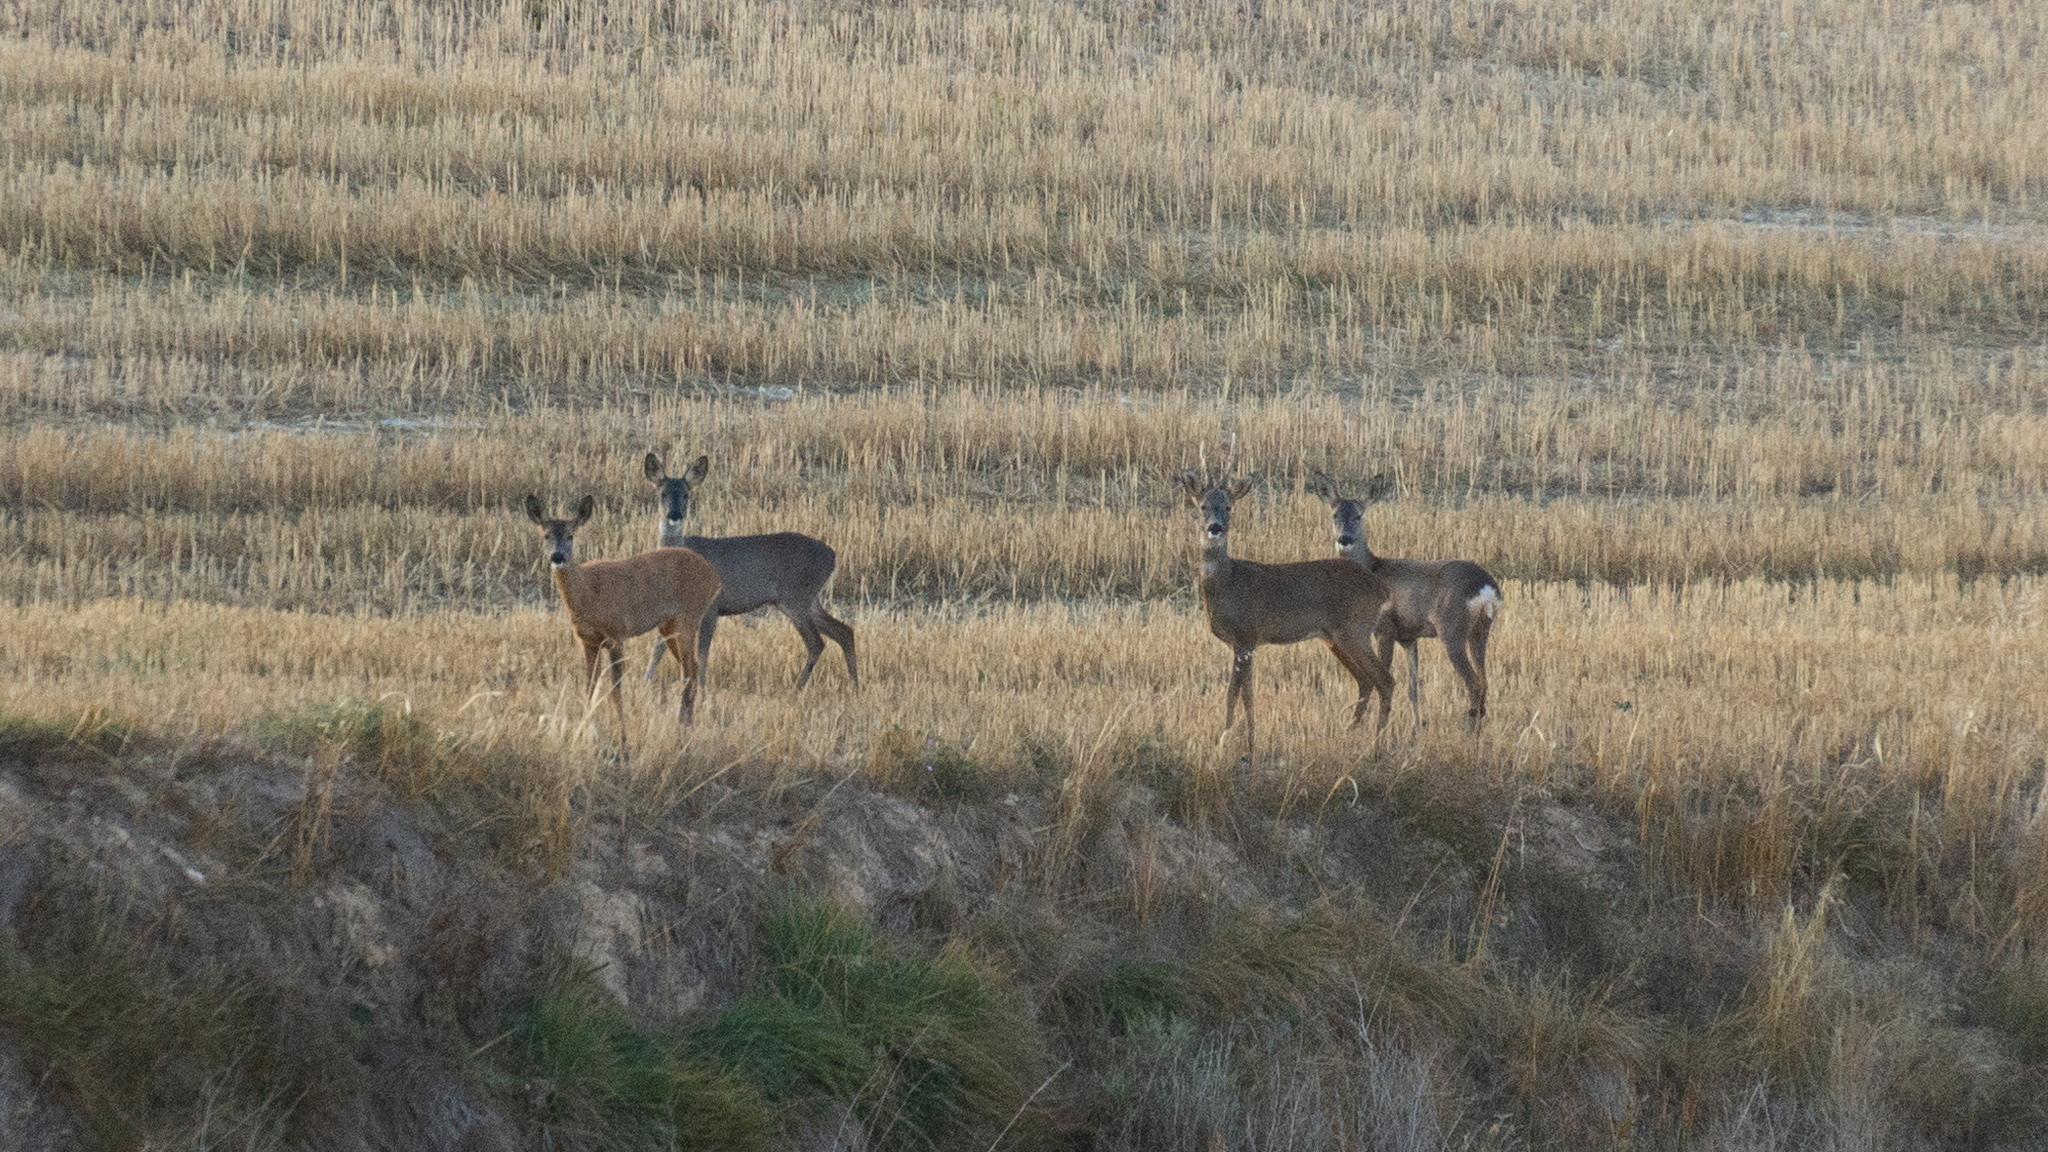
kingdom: Animalia
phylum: Chordata
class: Mammalia
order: Artiodactyla
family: Cervidae
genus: Capreolus
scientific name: Capreolus capreolus
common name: Western roe deer
